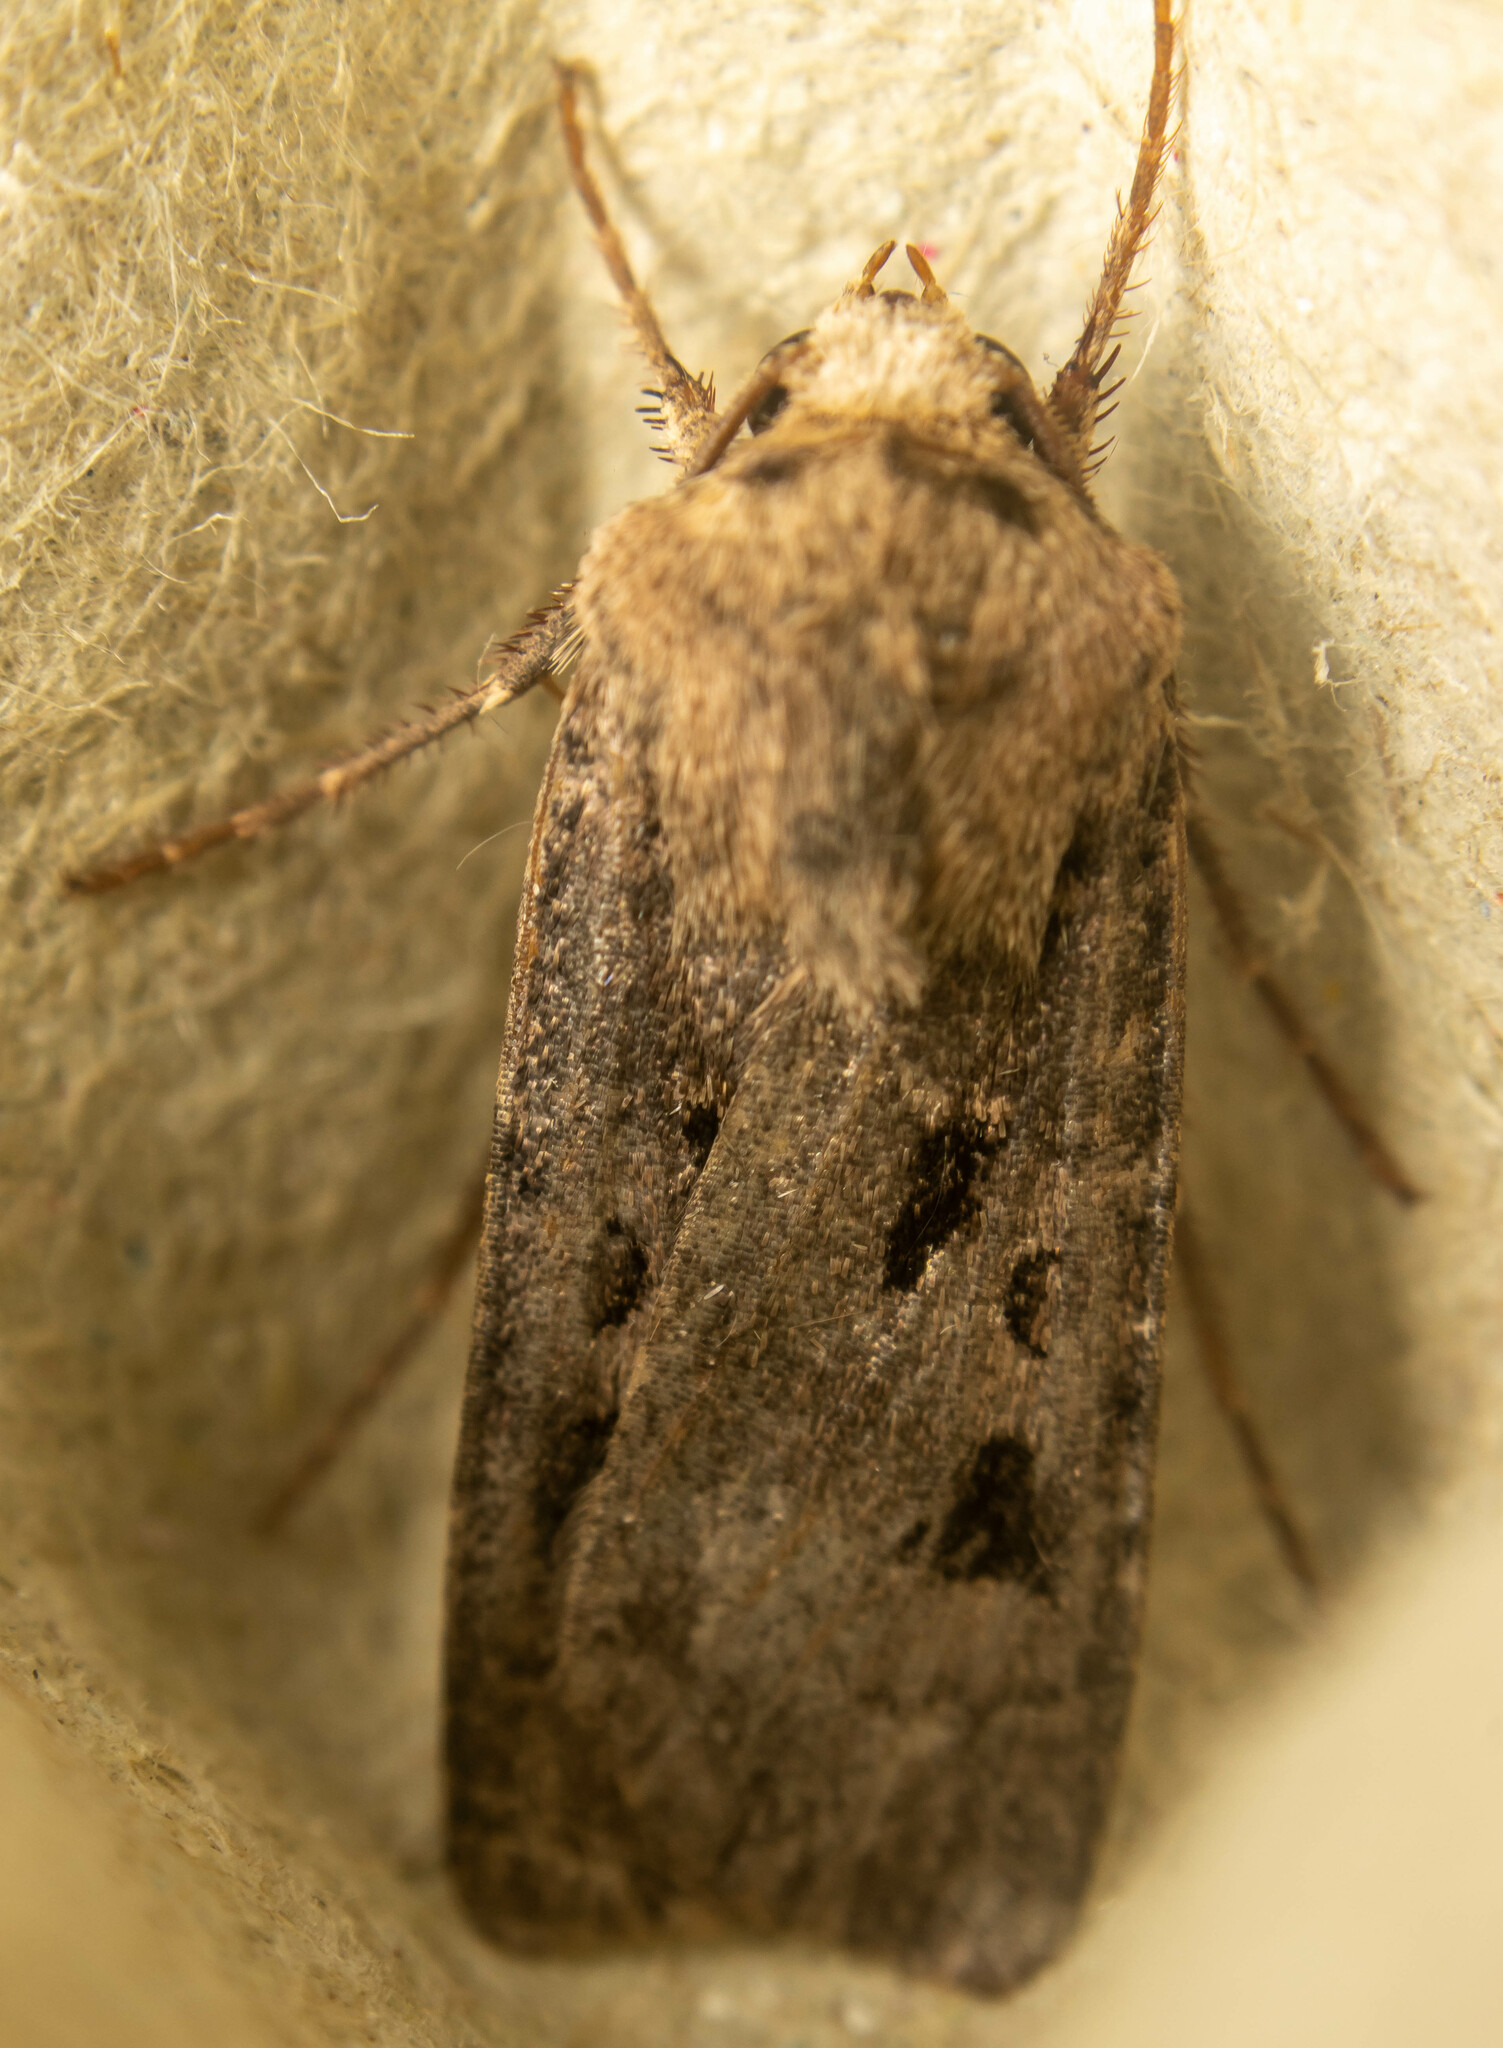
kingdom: Animalia
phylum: Arthropoda
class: Insecta
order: Lepidoptera
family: Noctuidae
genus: Agrotis
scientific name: Agrotis exclamationis
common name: Heart and dart
